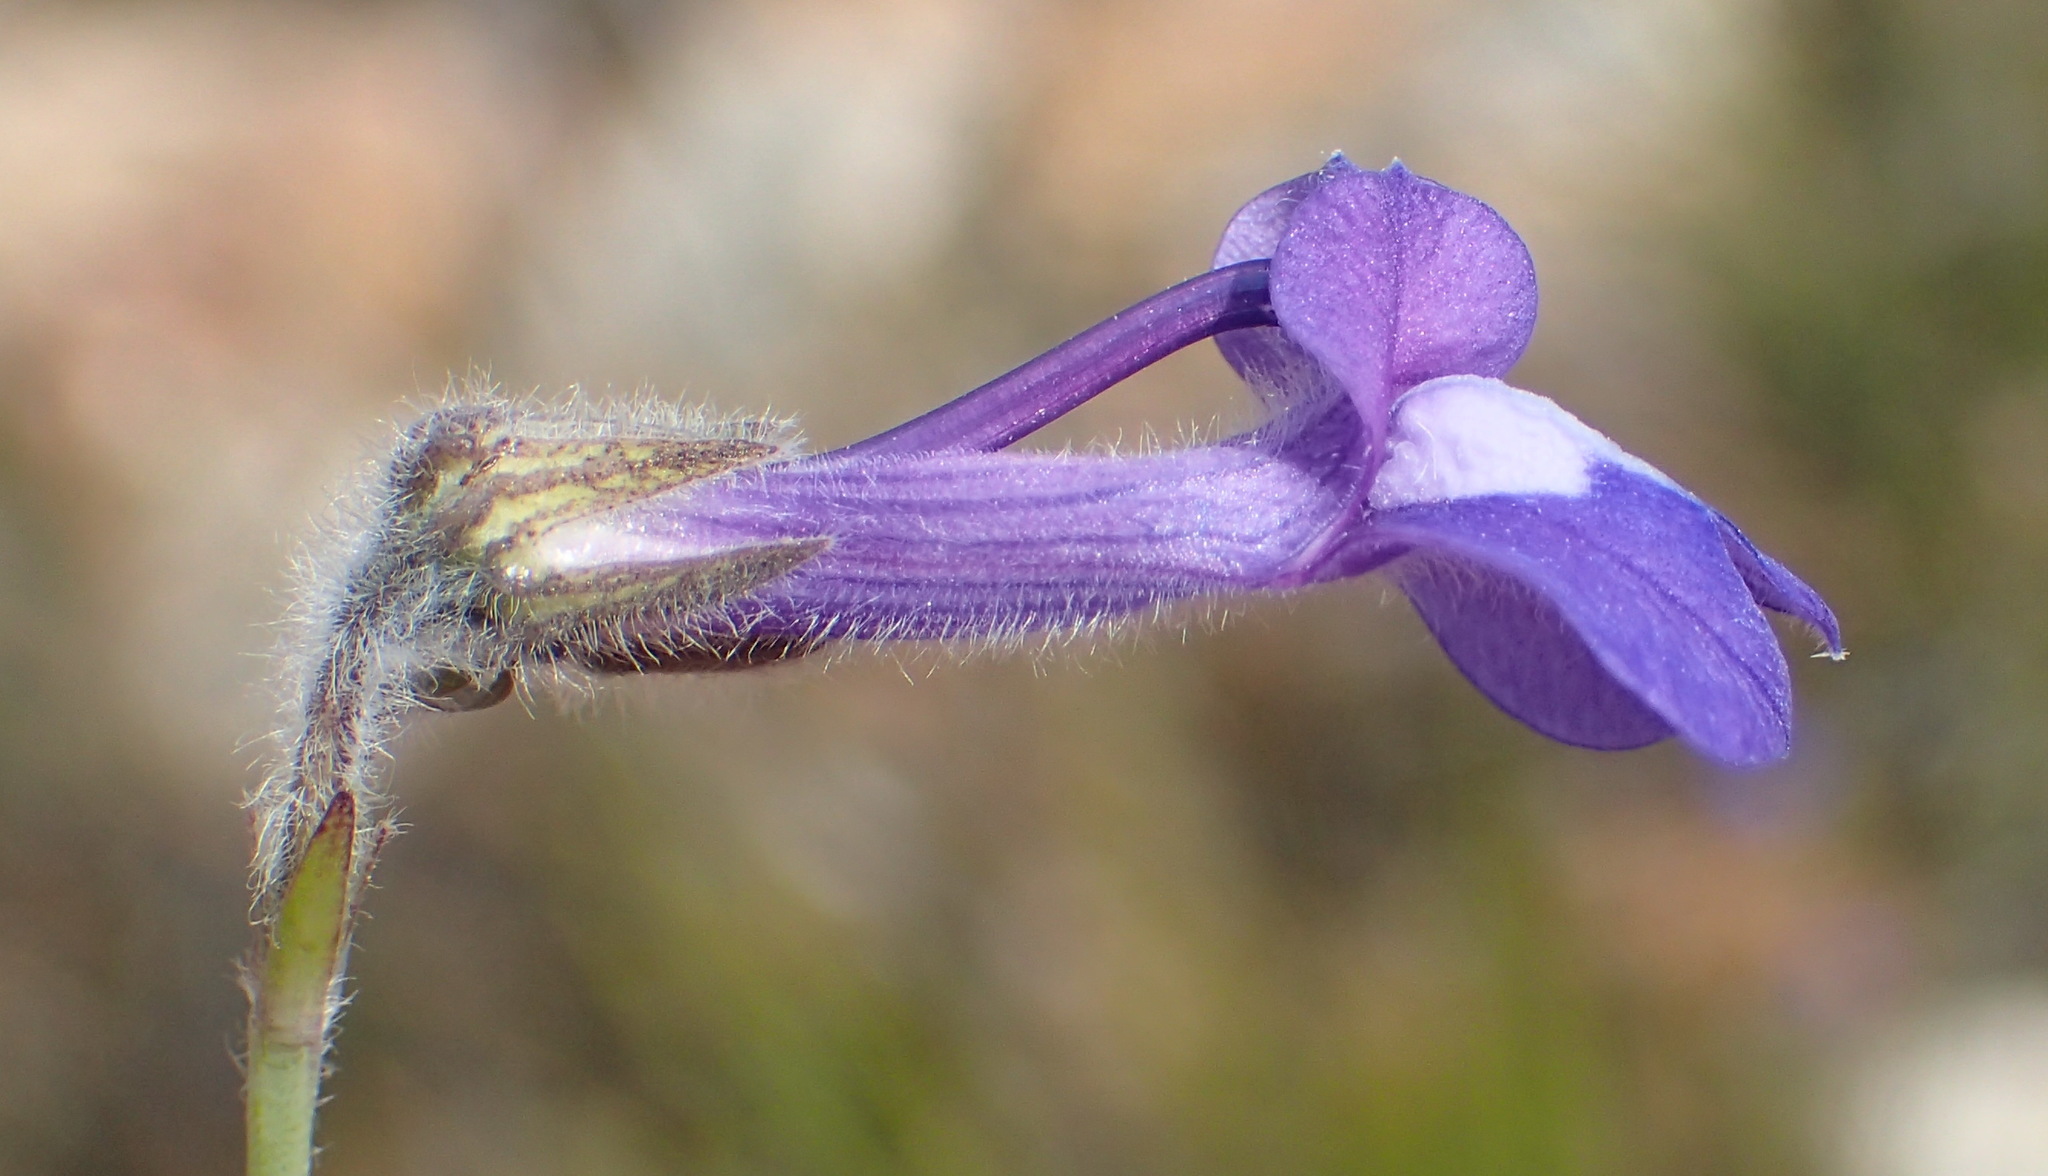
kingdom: Plantae
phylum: Tracheophyta
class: Magnoliopsida
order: Asterales
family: Campanulaceae
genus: Lobelia
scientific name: Lobelia linearis
